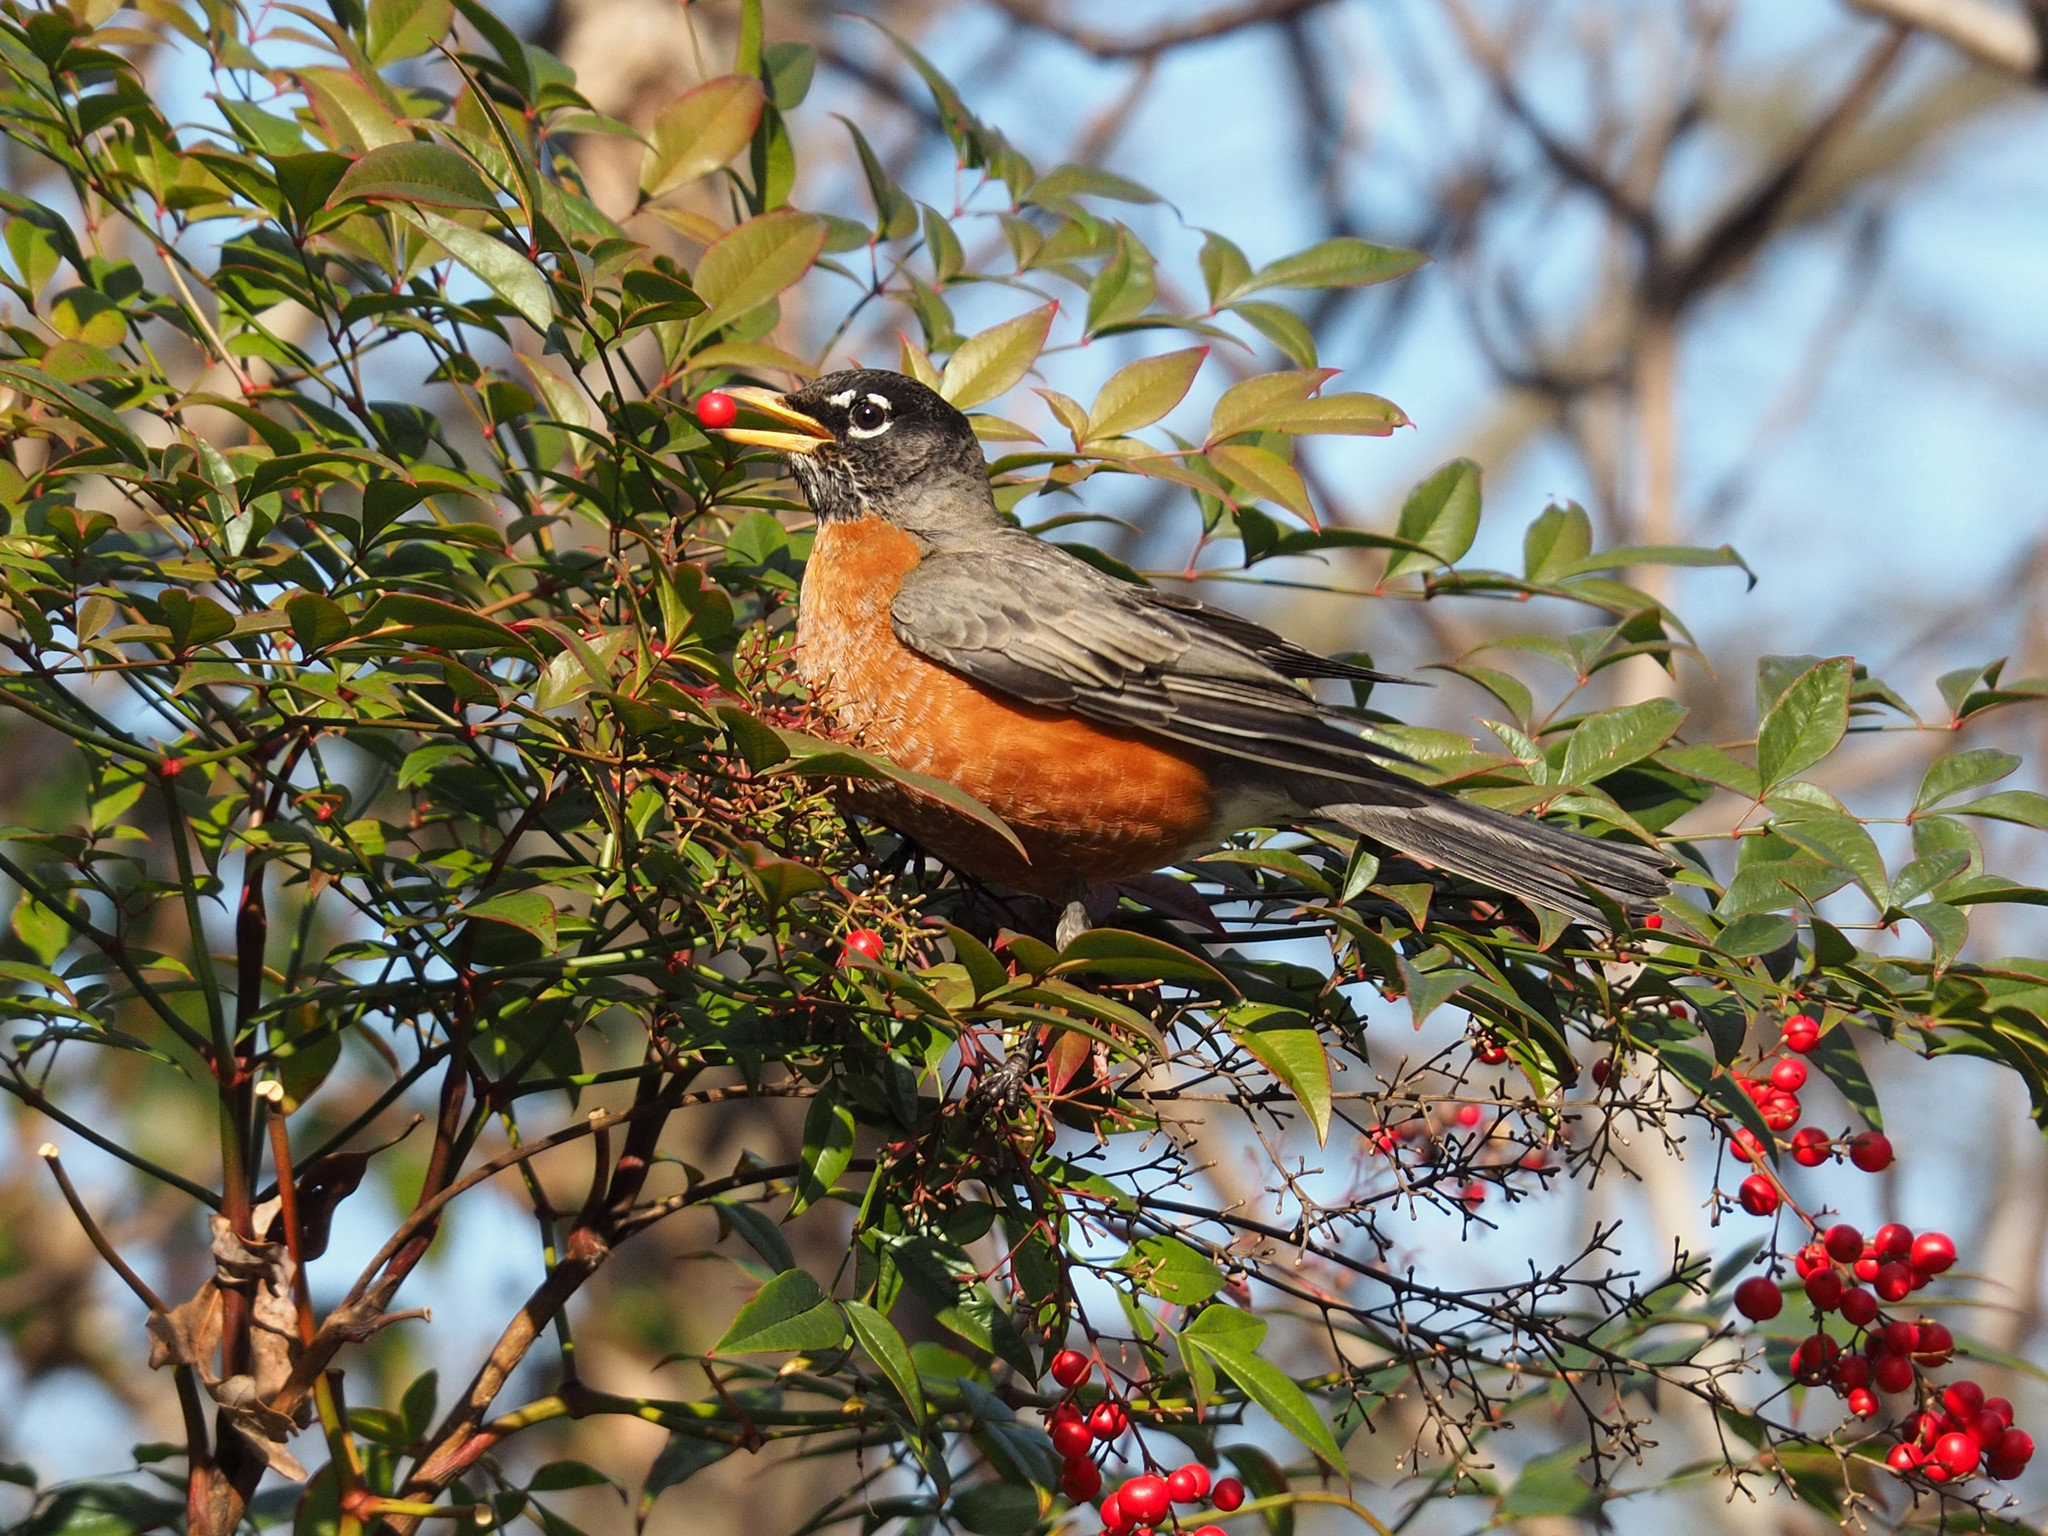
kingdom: Animalia
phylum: Chordata
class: Aves
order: Passeriformes
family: Turdidae
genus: Turdus
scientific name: Turdus migratorius
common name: American robin
